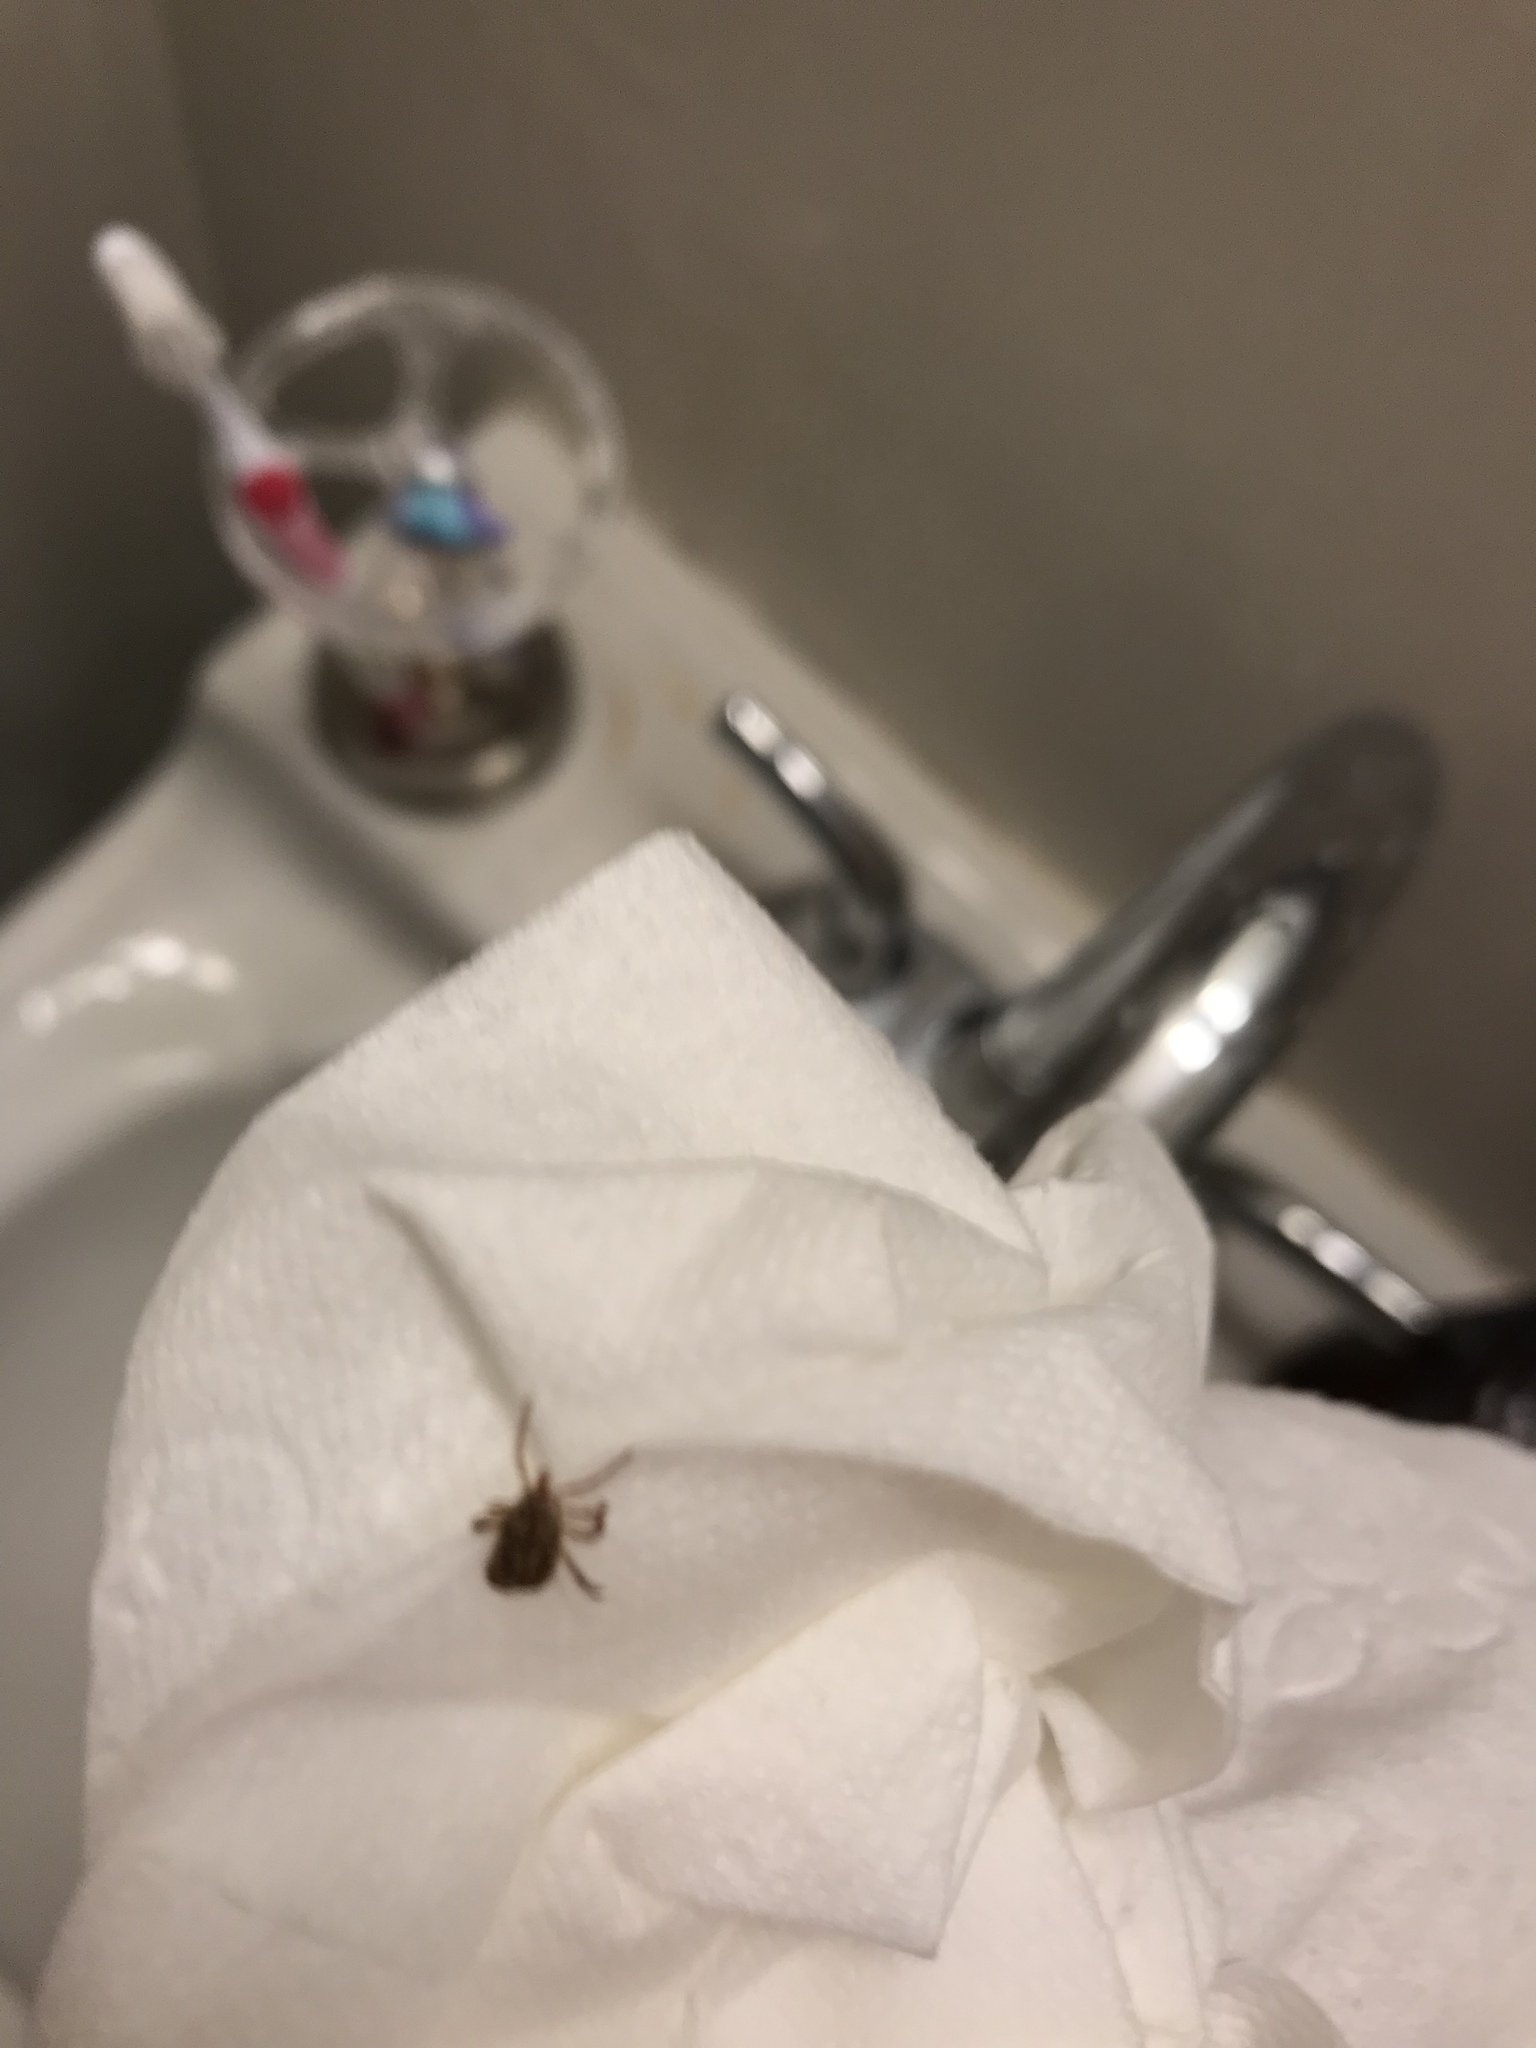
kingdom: Animalia
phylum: Arthropoda
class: Arachnida
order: Ixodida
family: Ixodidae
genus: Amblyomma
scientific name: Amblyomma maculatum
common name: Gulf coast tick
